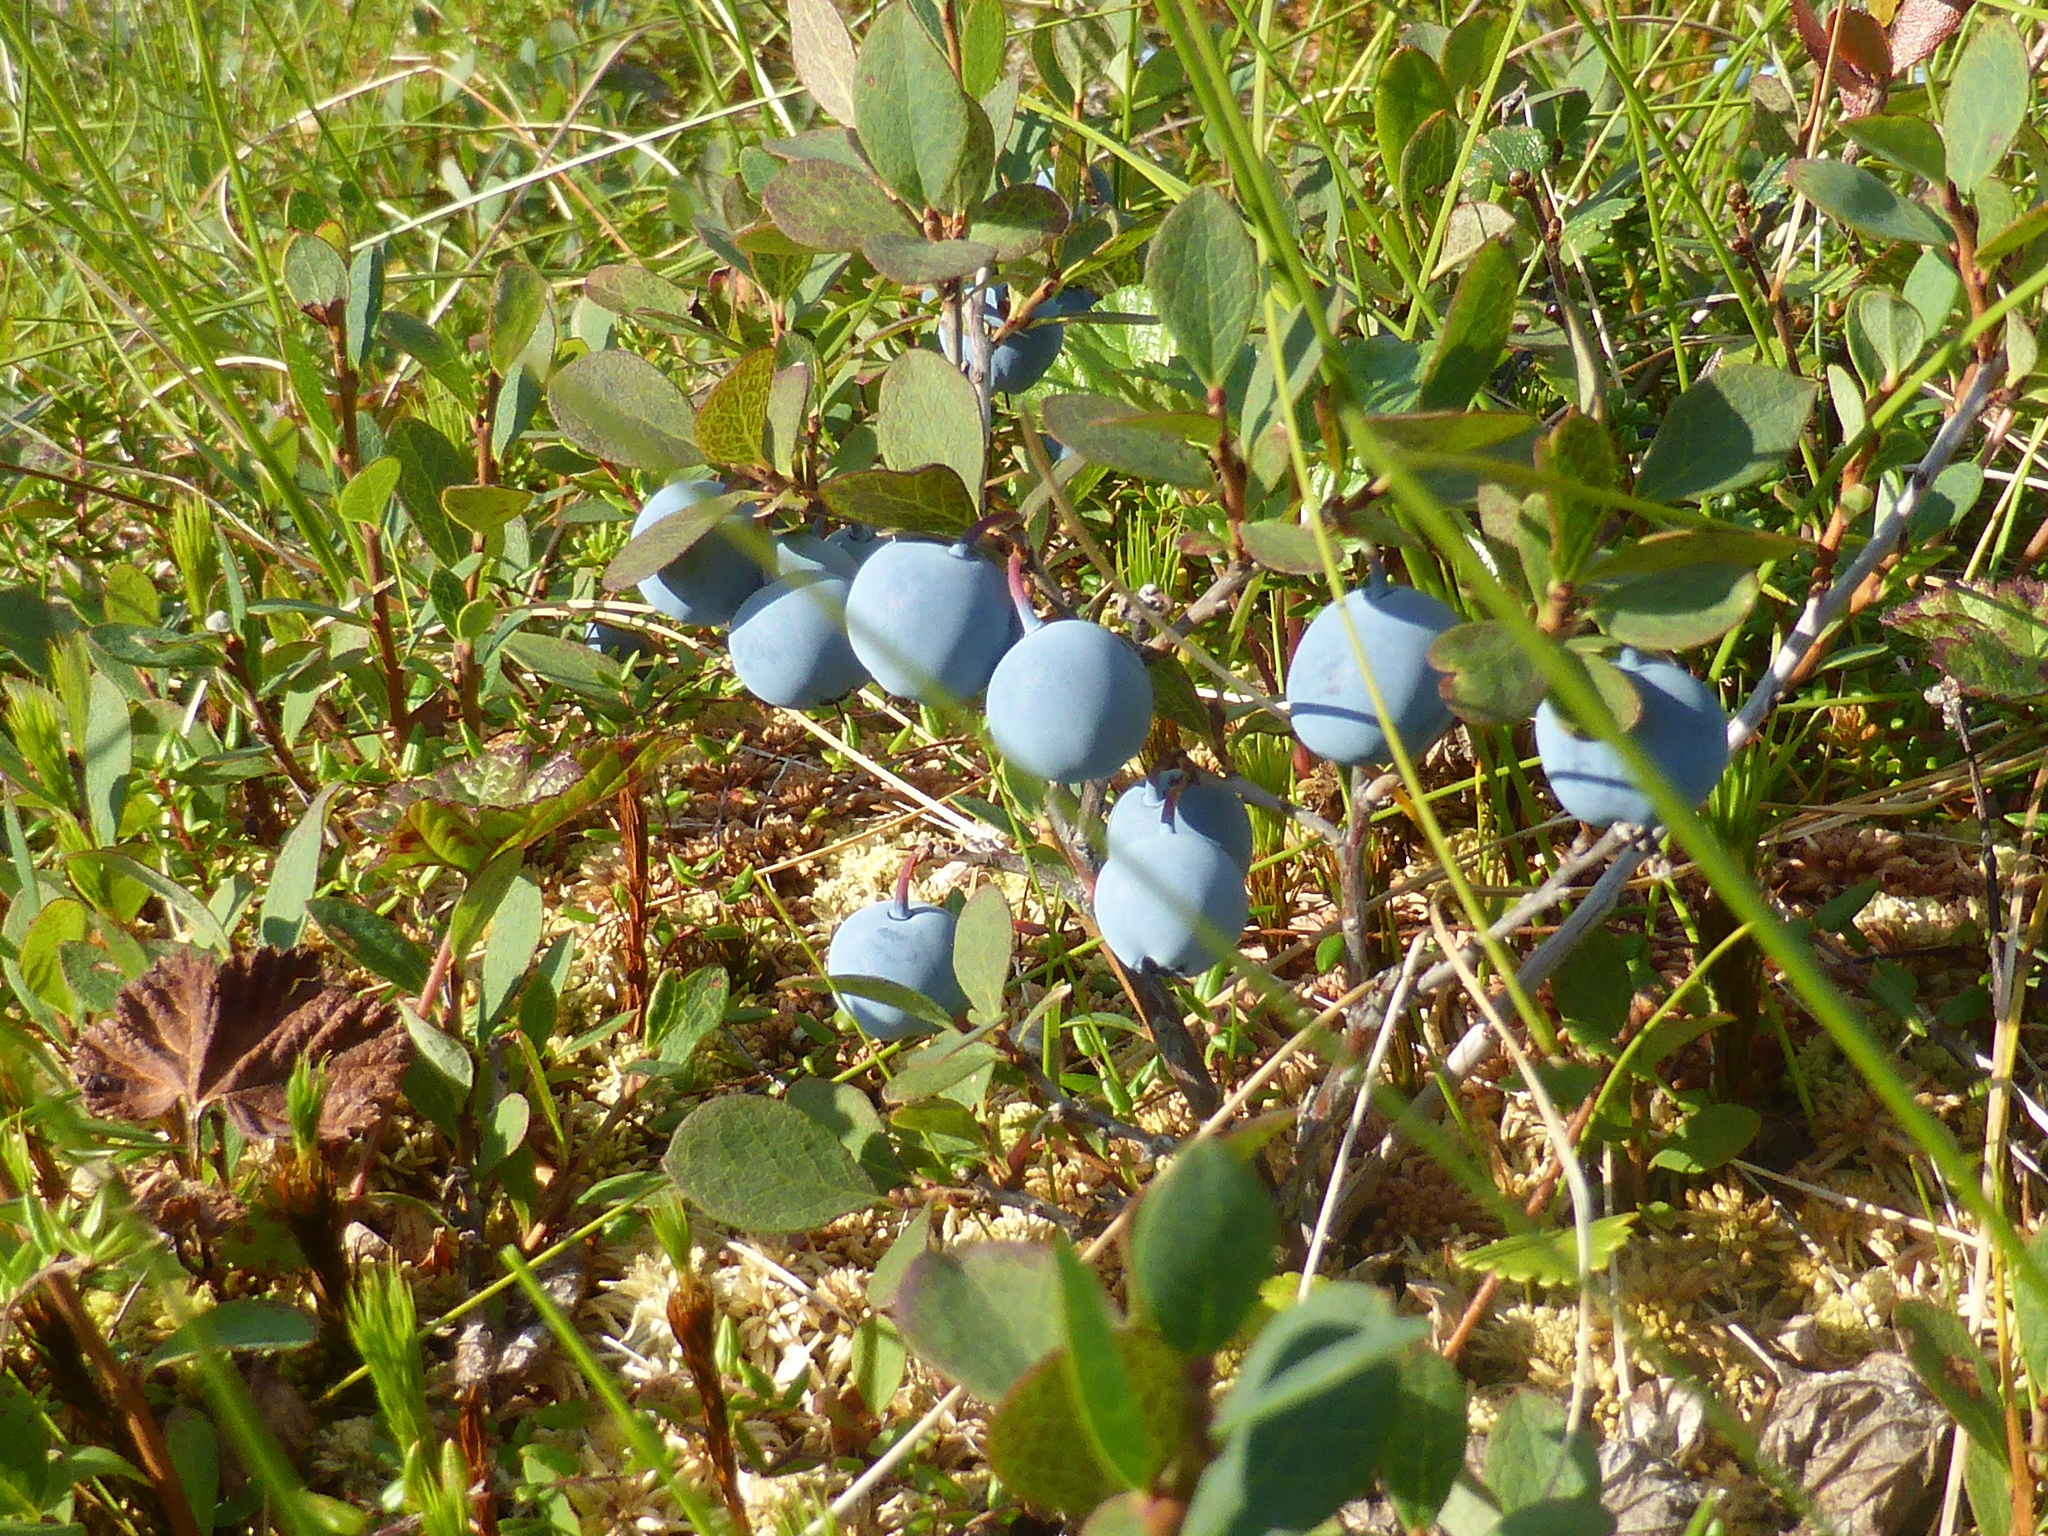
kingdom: Plantae
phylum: Tracheophyta
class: Magnoliopsida
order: Ericales
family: Ericaceae
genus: Vaccinium
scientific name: Vaccinium uliginosum
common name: Bog bilberry
